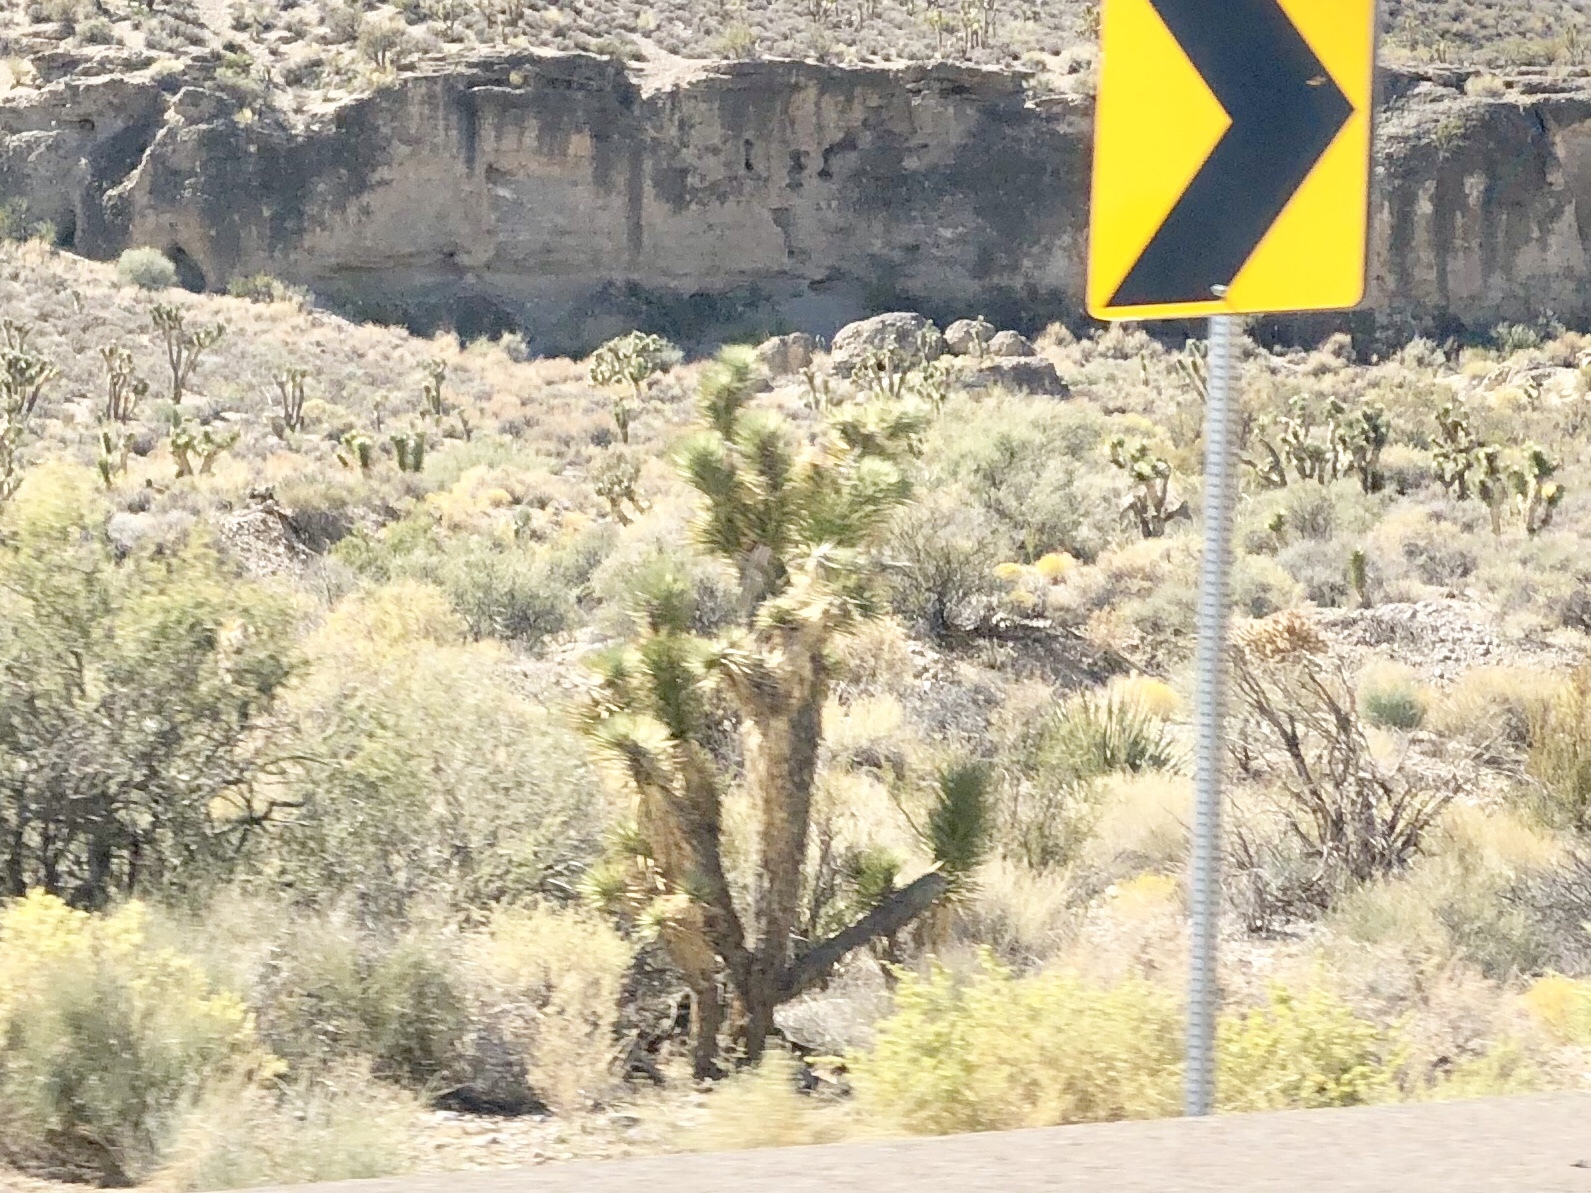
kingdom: Plantae
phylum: Tracheophyta
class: Liliopsida
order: Asparagales
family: Asparagaceae
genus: Yucca
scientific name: Yucca brevifolia
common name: Joshua tree
